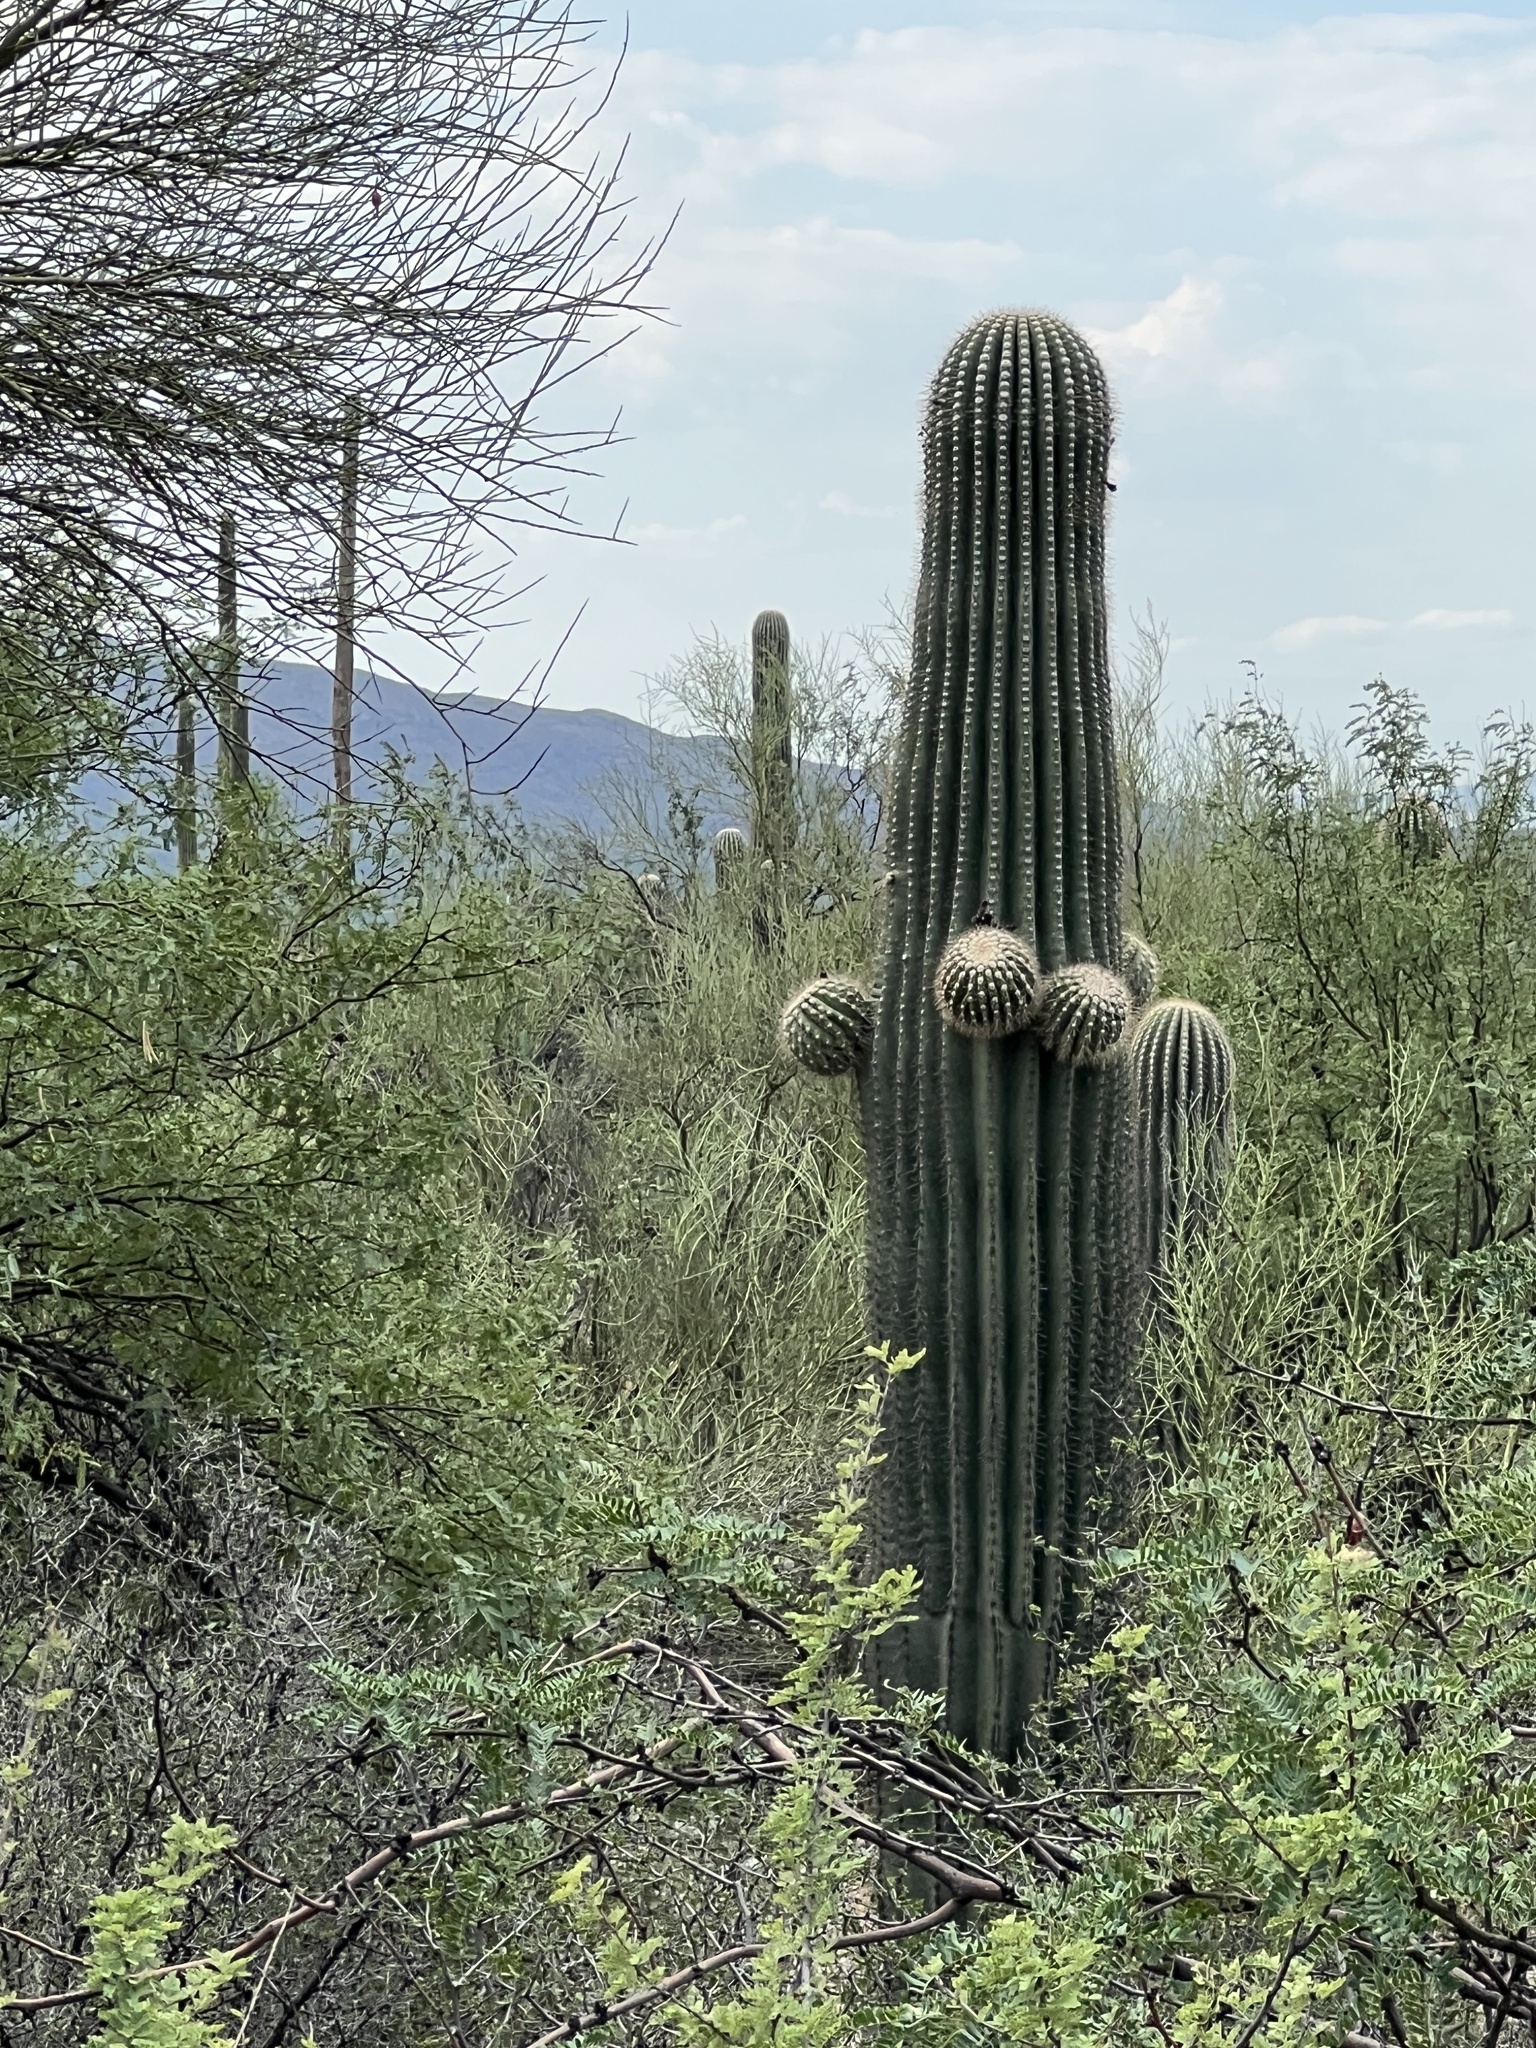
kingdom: Plantae
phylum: Tracheophyta
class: Magnoliopsida
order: Caryophyllales
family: Cactaceae
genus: Carnegiea
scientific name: Carnegiea gigantea
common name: Saguaro
